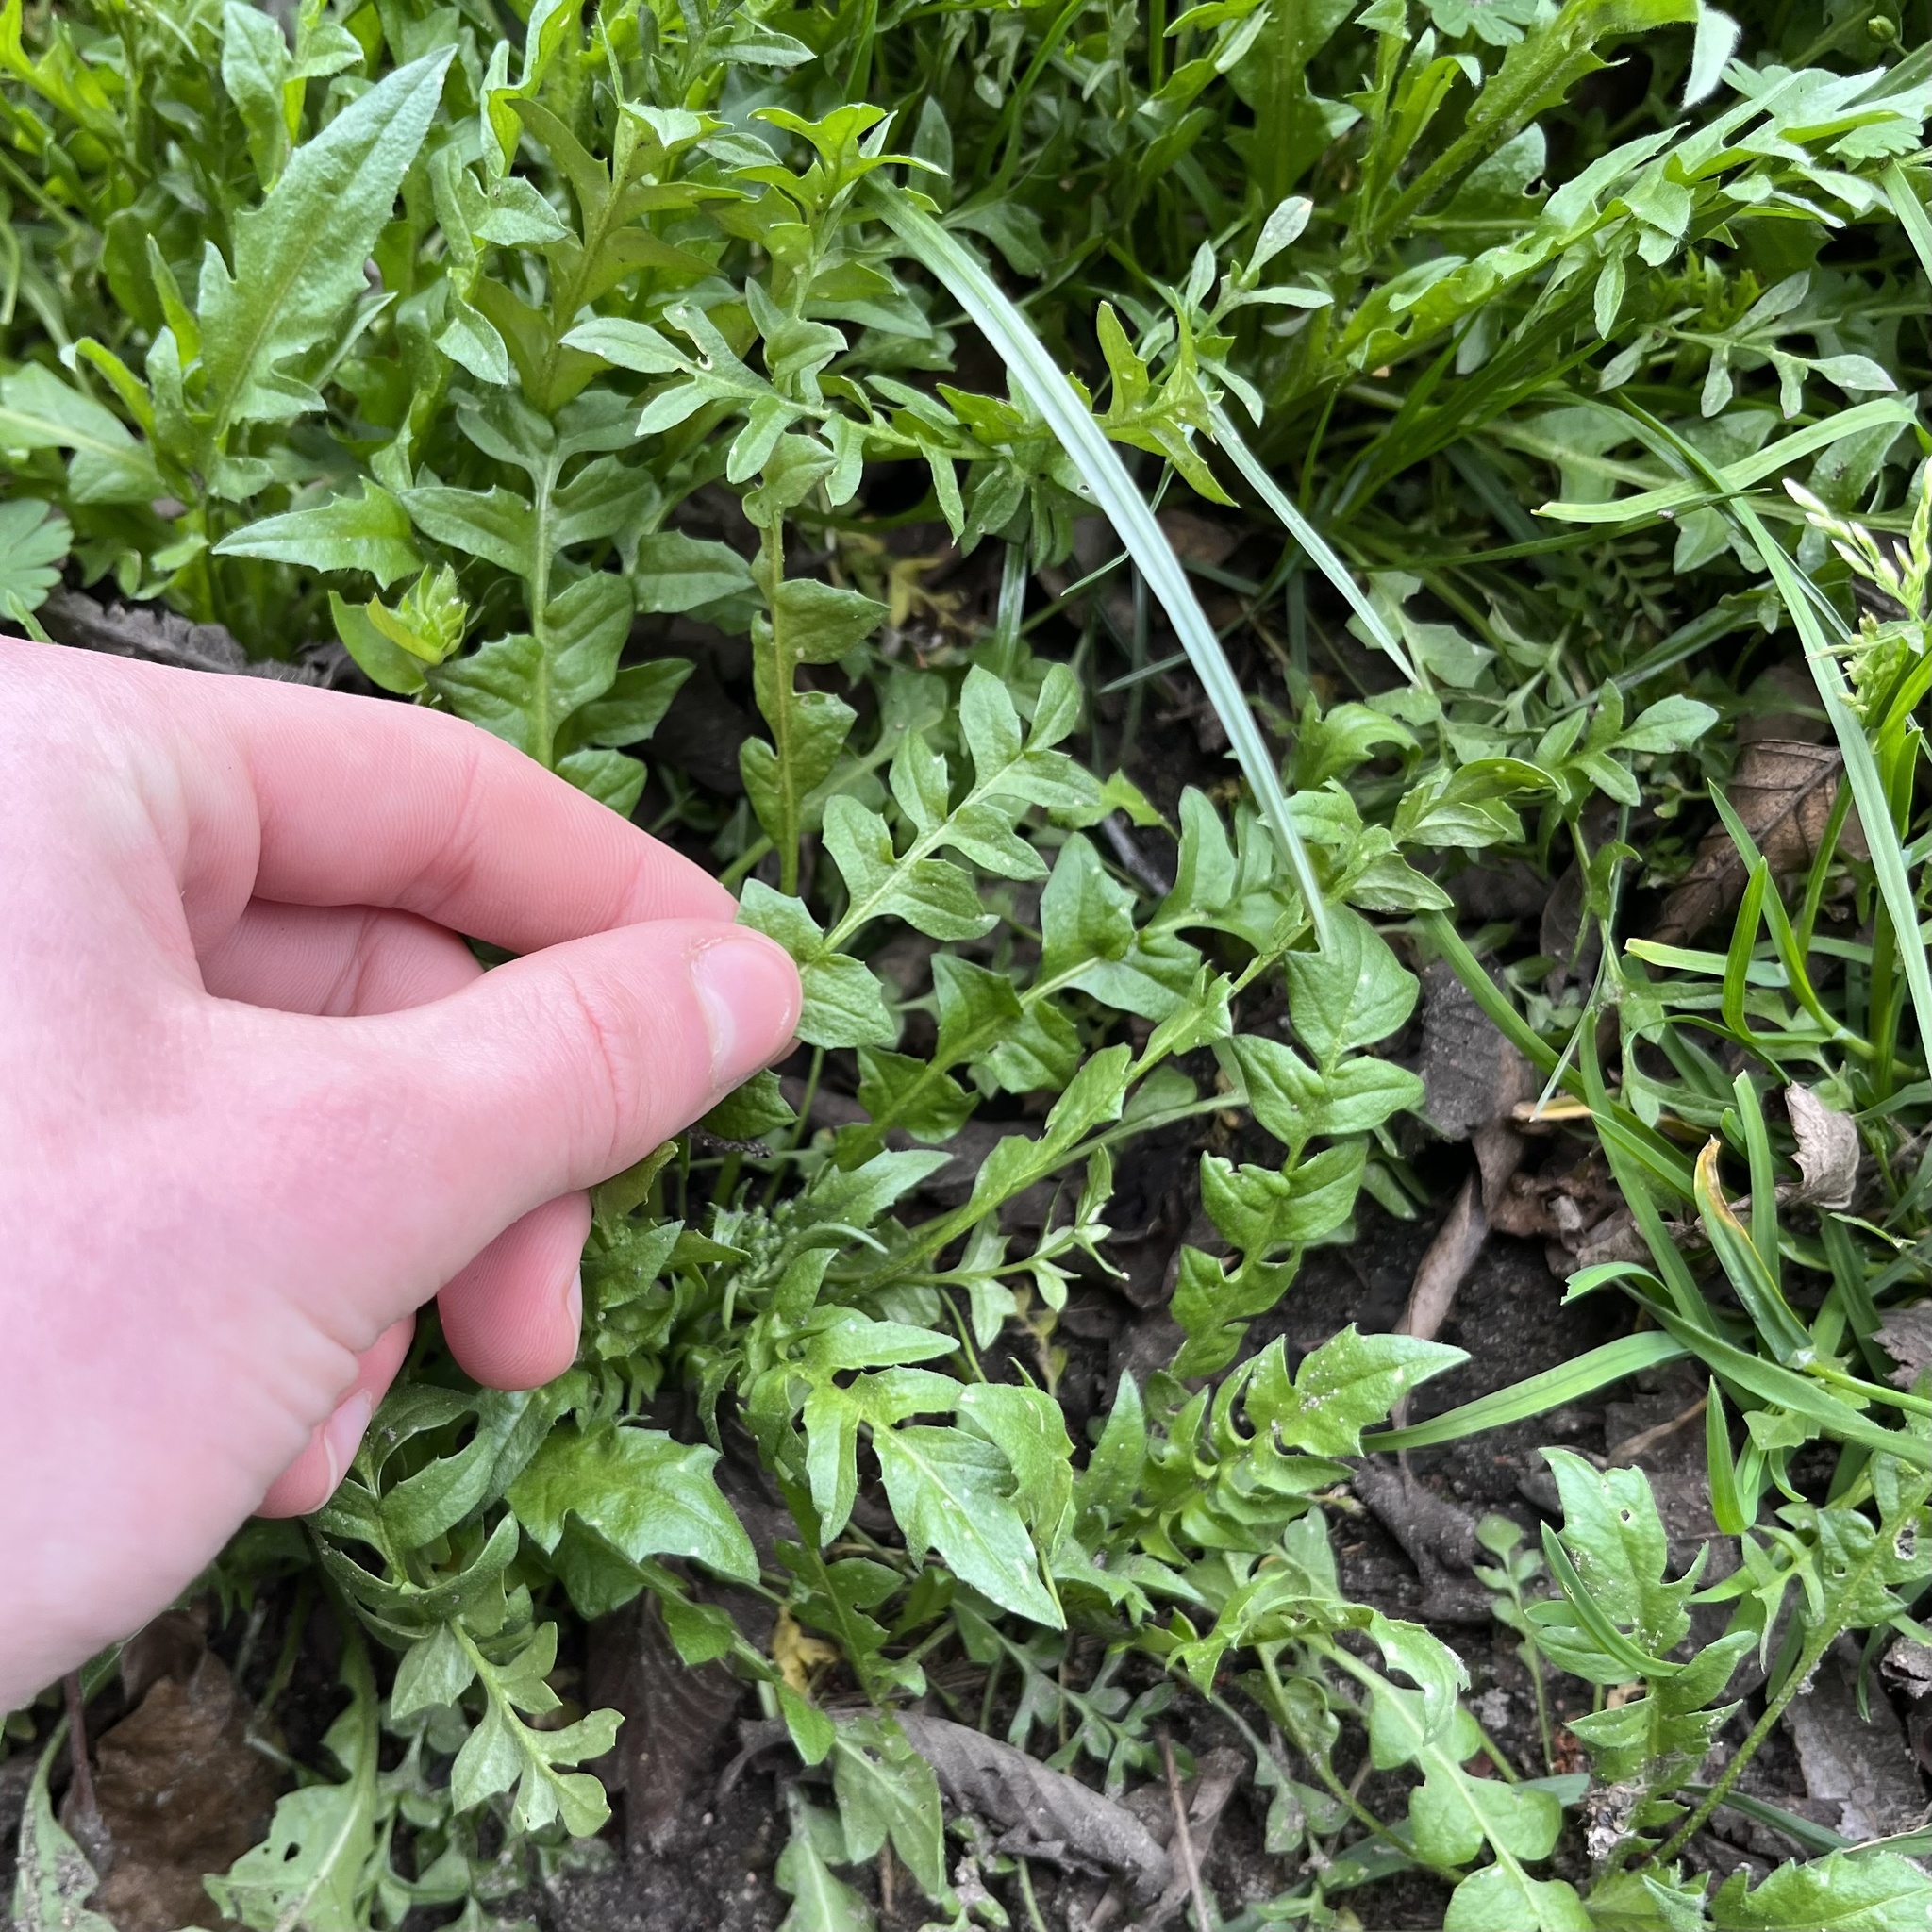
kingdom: Plantae
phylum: Tracheophyta
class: Magnoliopsida
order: Brassicales
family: Brassicaceae
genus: Capsella
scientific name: Capsella bursa-pastoris
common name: Shepherd's purse
